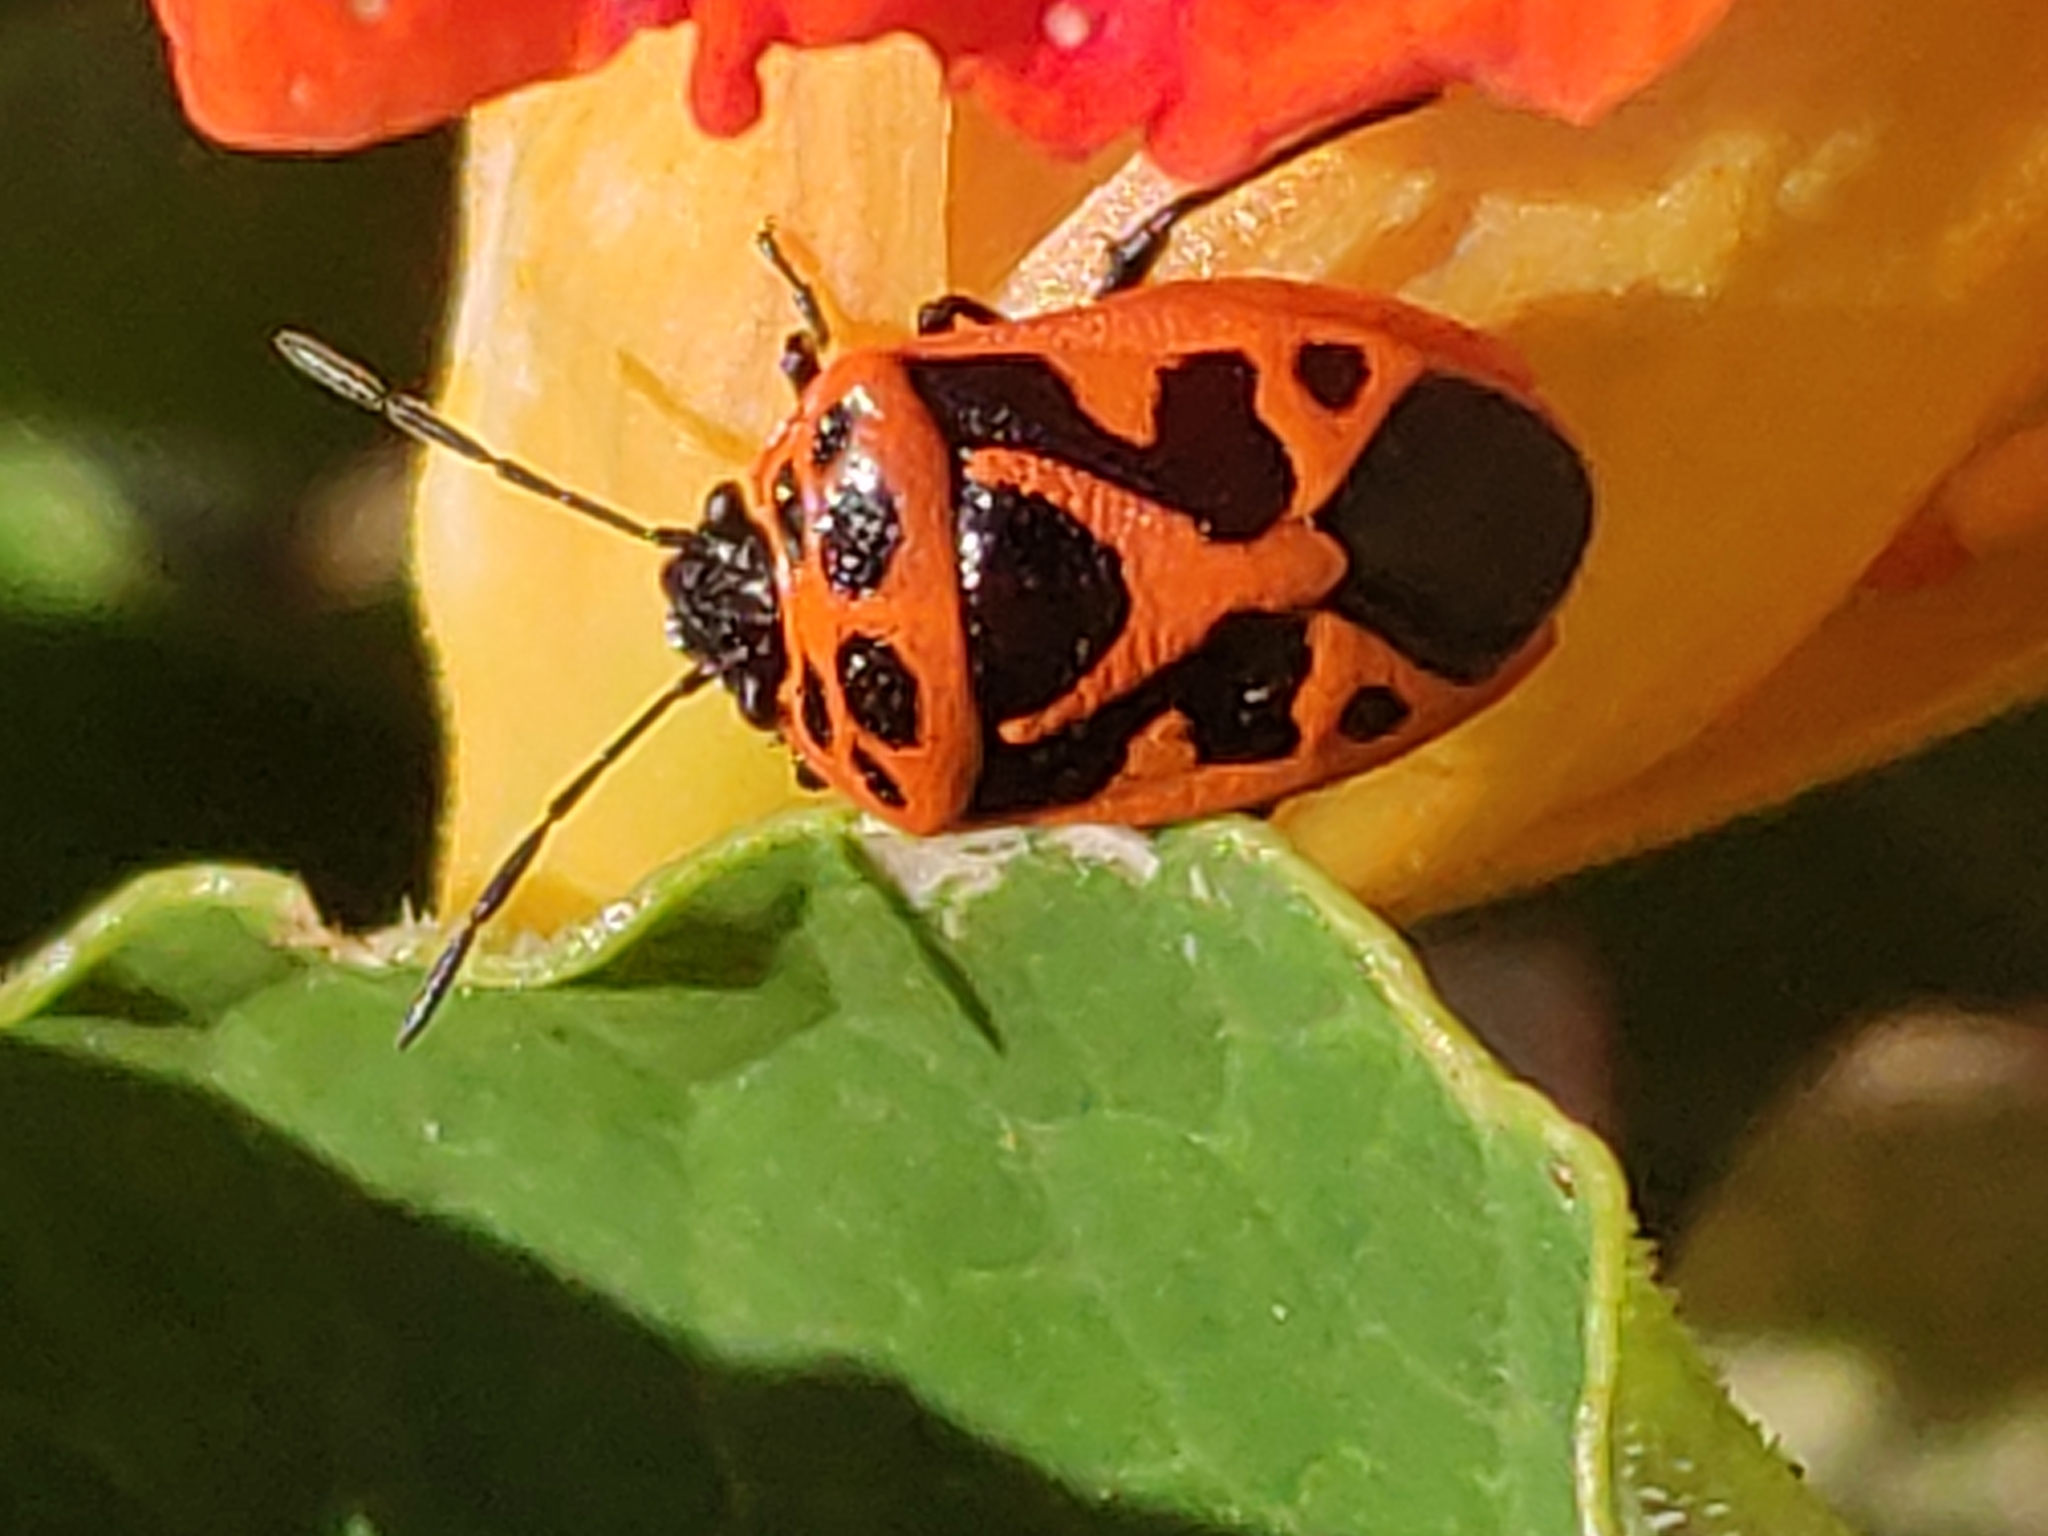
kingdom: Animalia
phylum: Arthropoda
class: Insecta
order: Hemiptera
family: Pentatomidae
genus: Eurydema
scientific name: Eurydema dominulus
